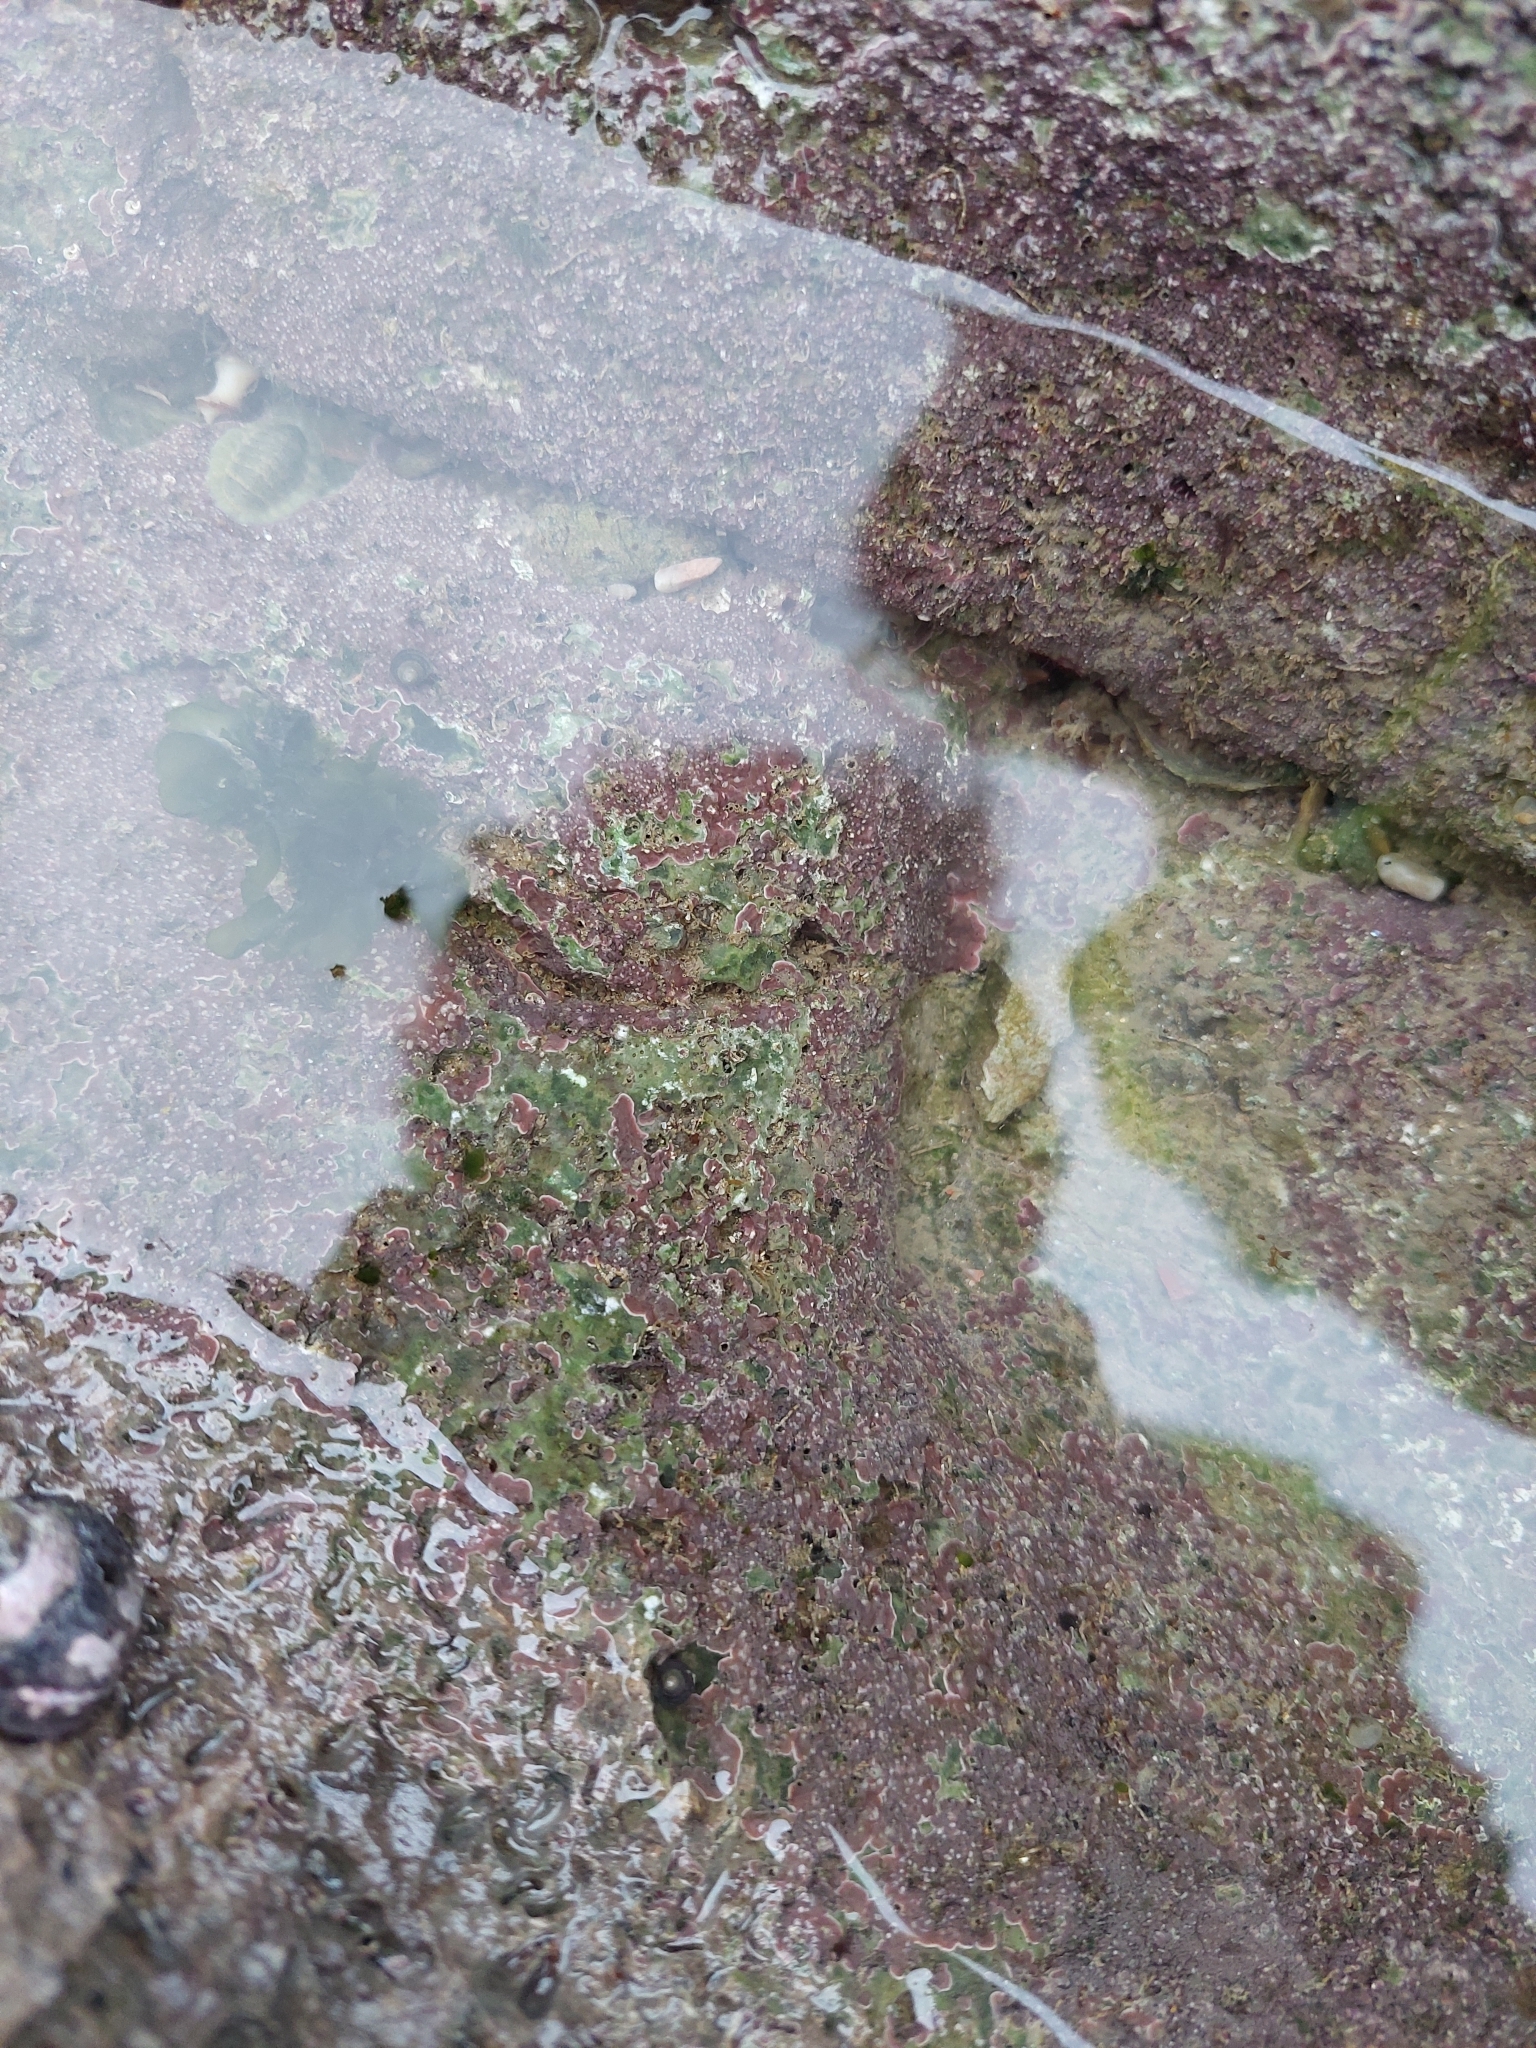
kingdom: Plantae
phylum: Rhodophyta
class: Florideophyceae
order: Corallinales
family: Lithophyllaceae
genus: Lithophyllum
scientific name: Lithophyllum incrustans
